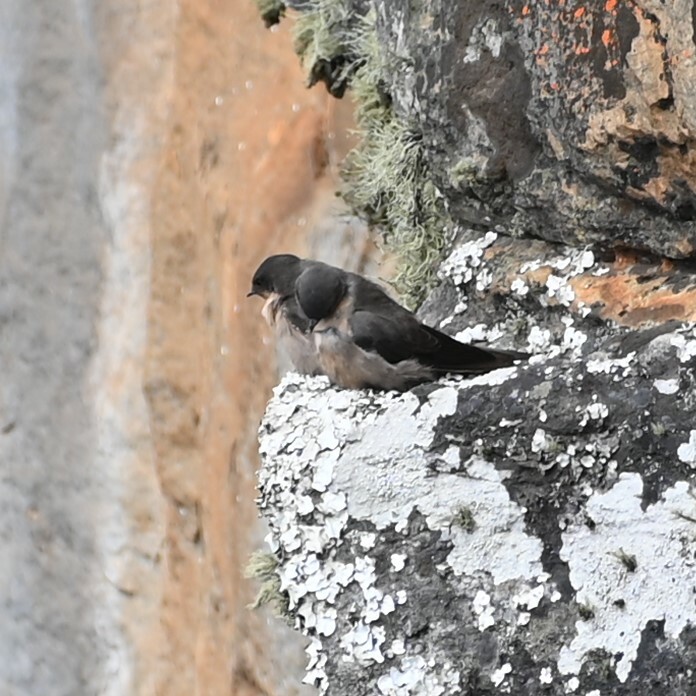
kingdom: Animalia
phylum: Chordata
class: Aves
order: Passeriformes
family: Hirundinidae
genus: Ptyonoprogne
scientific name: Ptyonoprogne fuligula
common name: Rock martin
